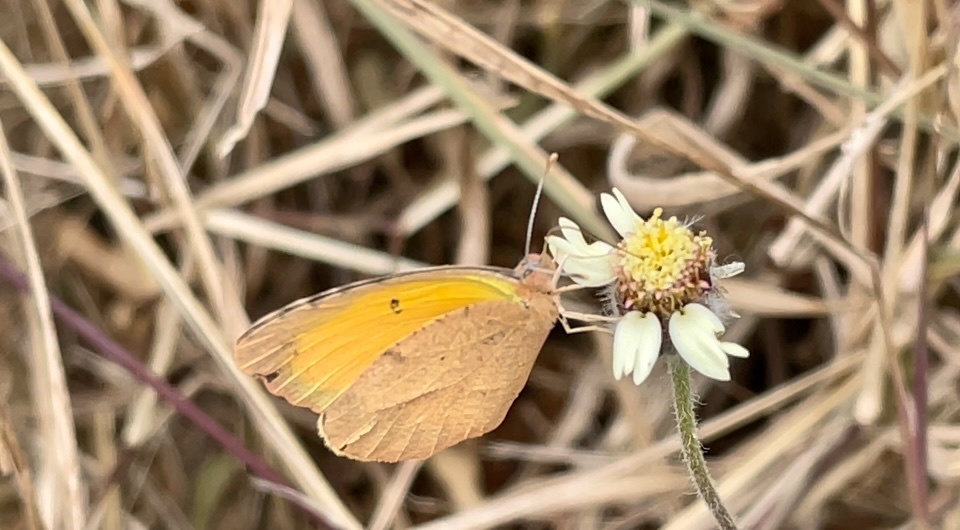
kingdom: Animalia
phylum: Arthropoda
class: Insecta
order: Lepidoptera
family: Pieridae
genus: Abaeis
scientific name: Abaeis nicippe
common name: Sleepy orange
